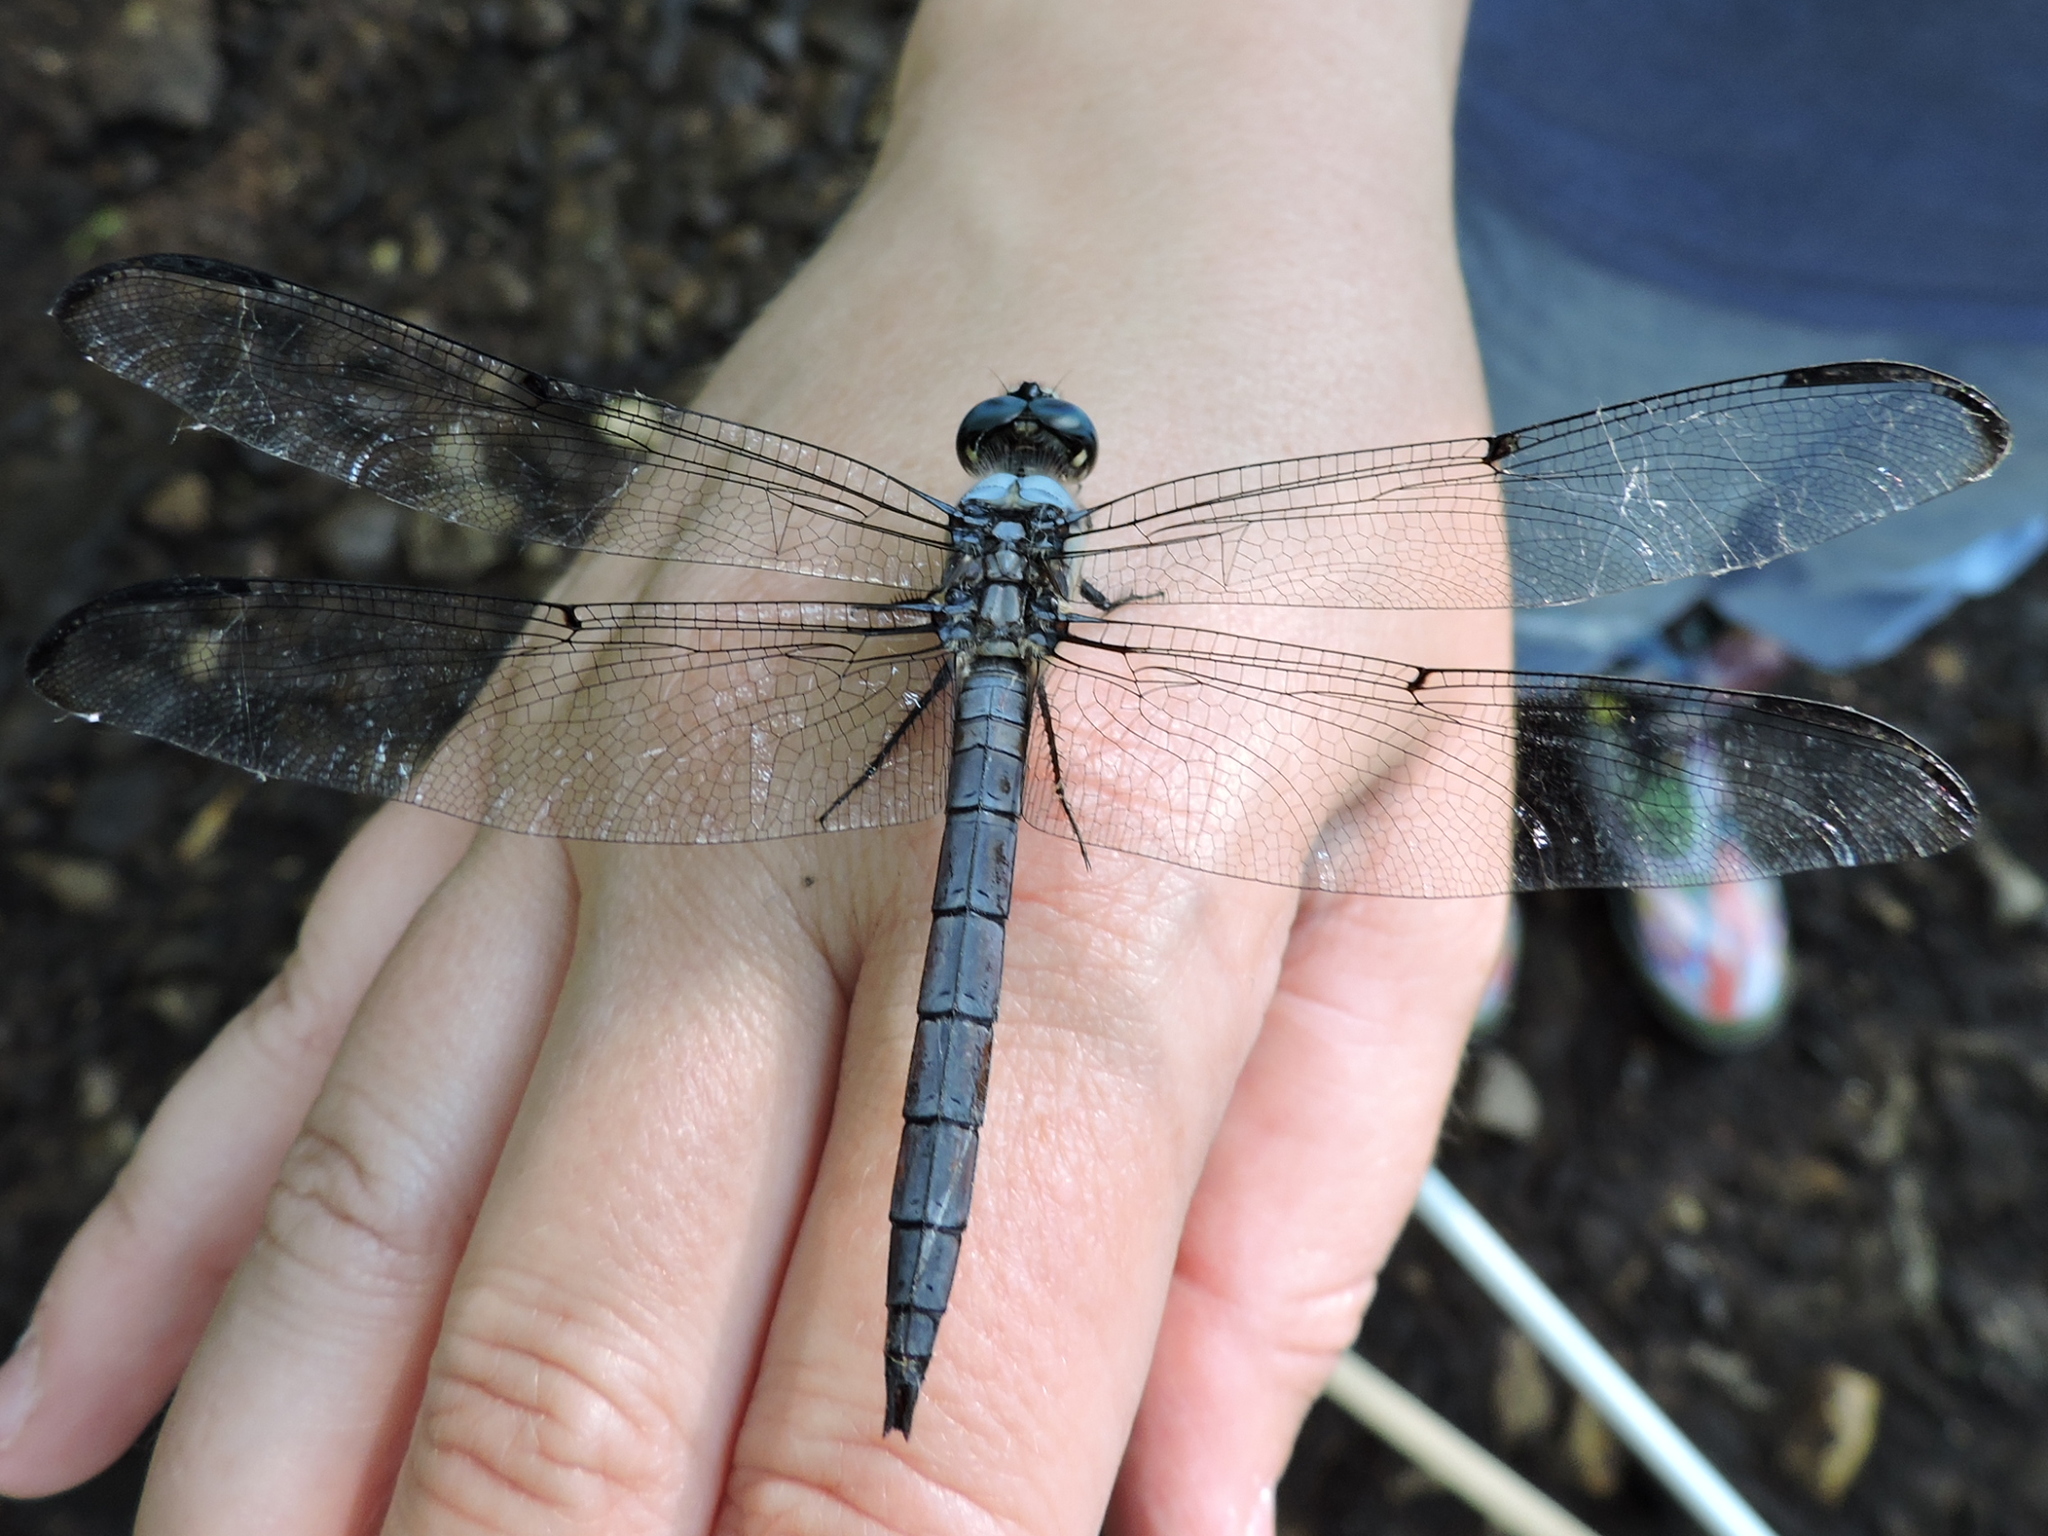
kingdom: Animalia
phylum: Arthropoda
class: Insecta
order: Odonata
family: Libellulidae
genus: Libellula
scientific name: Libellula vibrans
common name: Great blue skimmer
